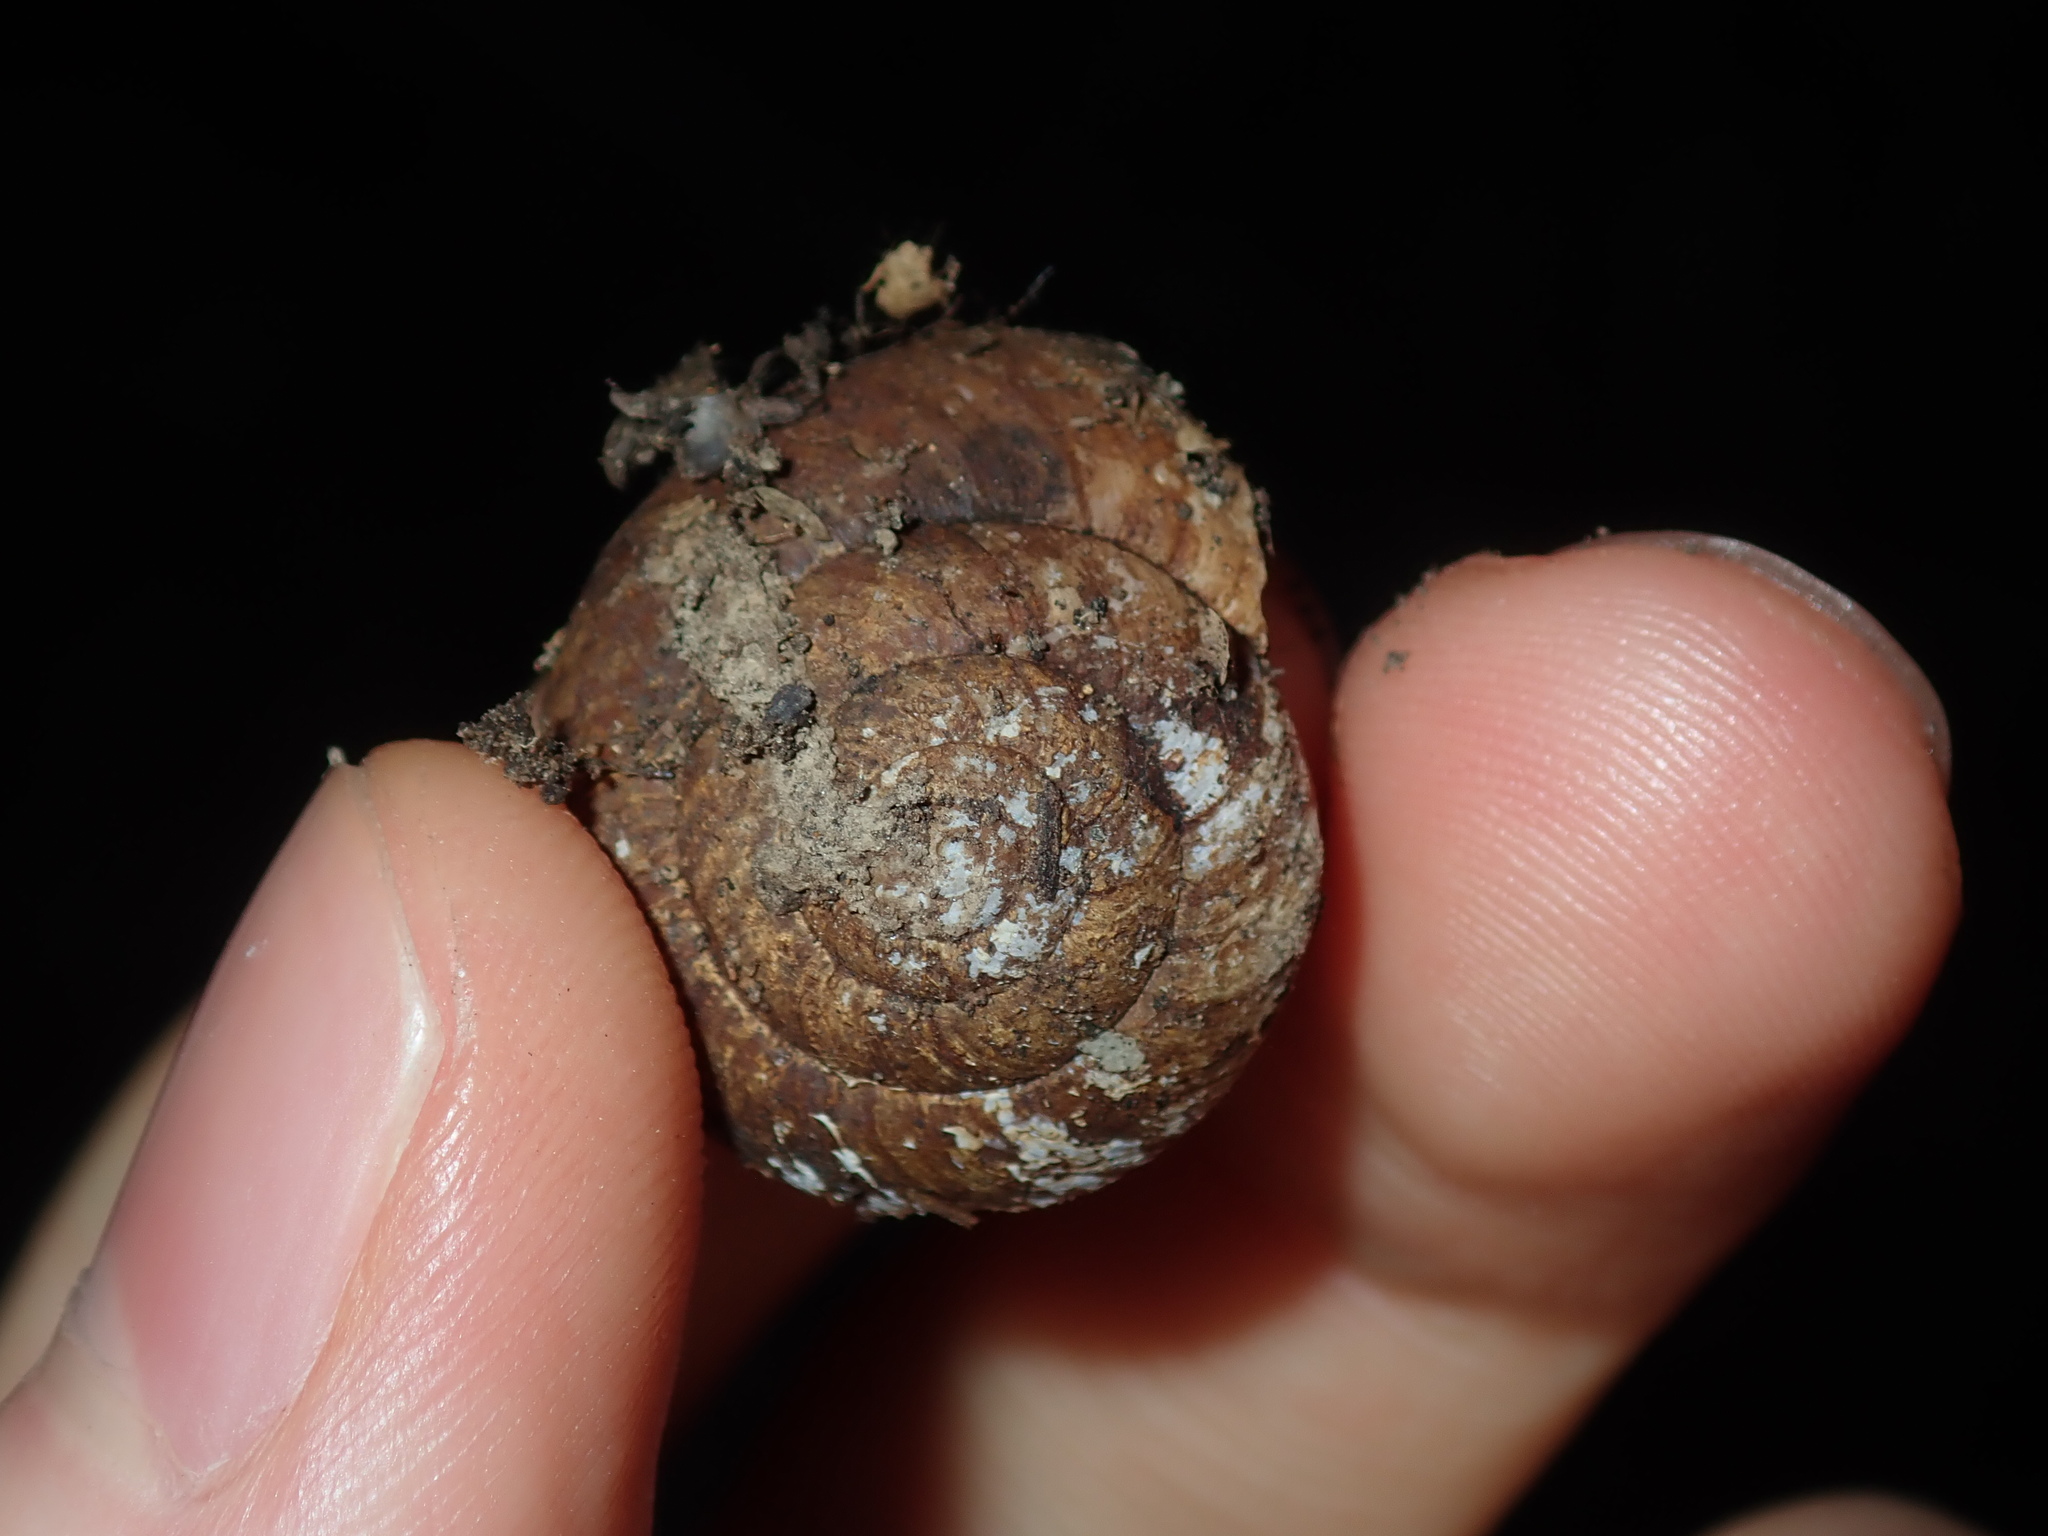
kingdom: Animalia
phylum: Mollusca
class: Gastropoda
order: Stylommatophora
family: Camaenidae
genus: Sauroconcha
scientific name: Sauroconcha sheai
